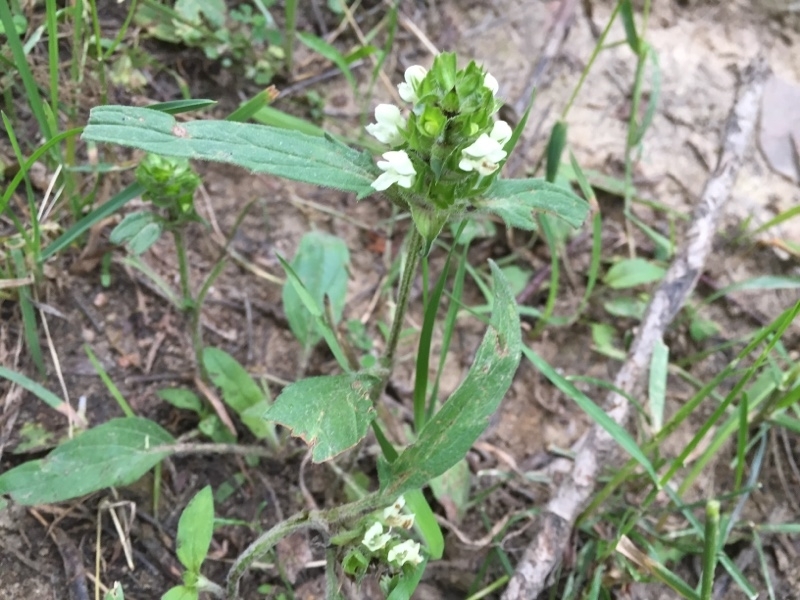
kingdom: Plantae
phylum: Tracheophyta
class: Magnoliopsida
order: Lamiales
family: Lamiaceae
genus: Prunella
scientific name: Prunella laciniata
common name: Cut-leaved selfheal
